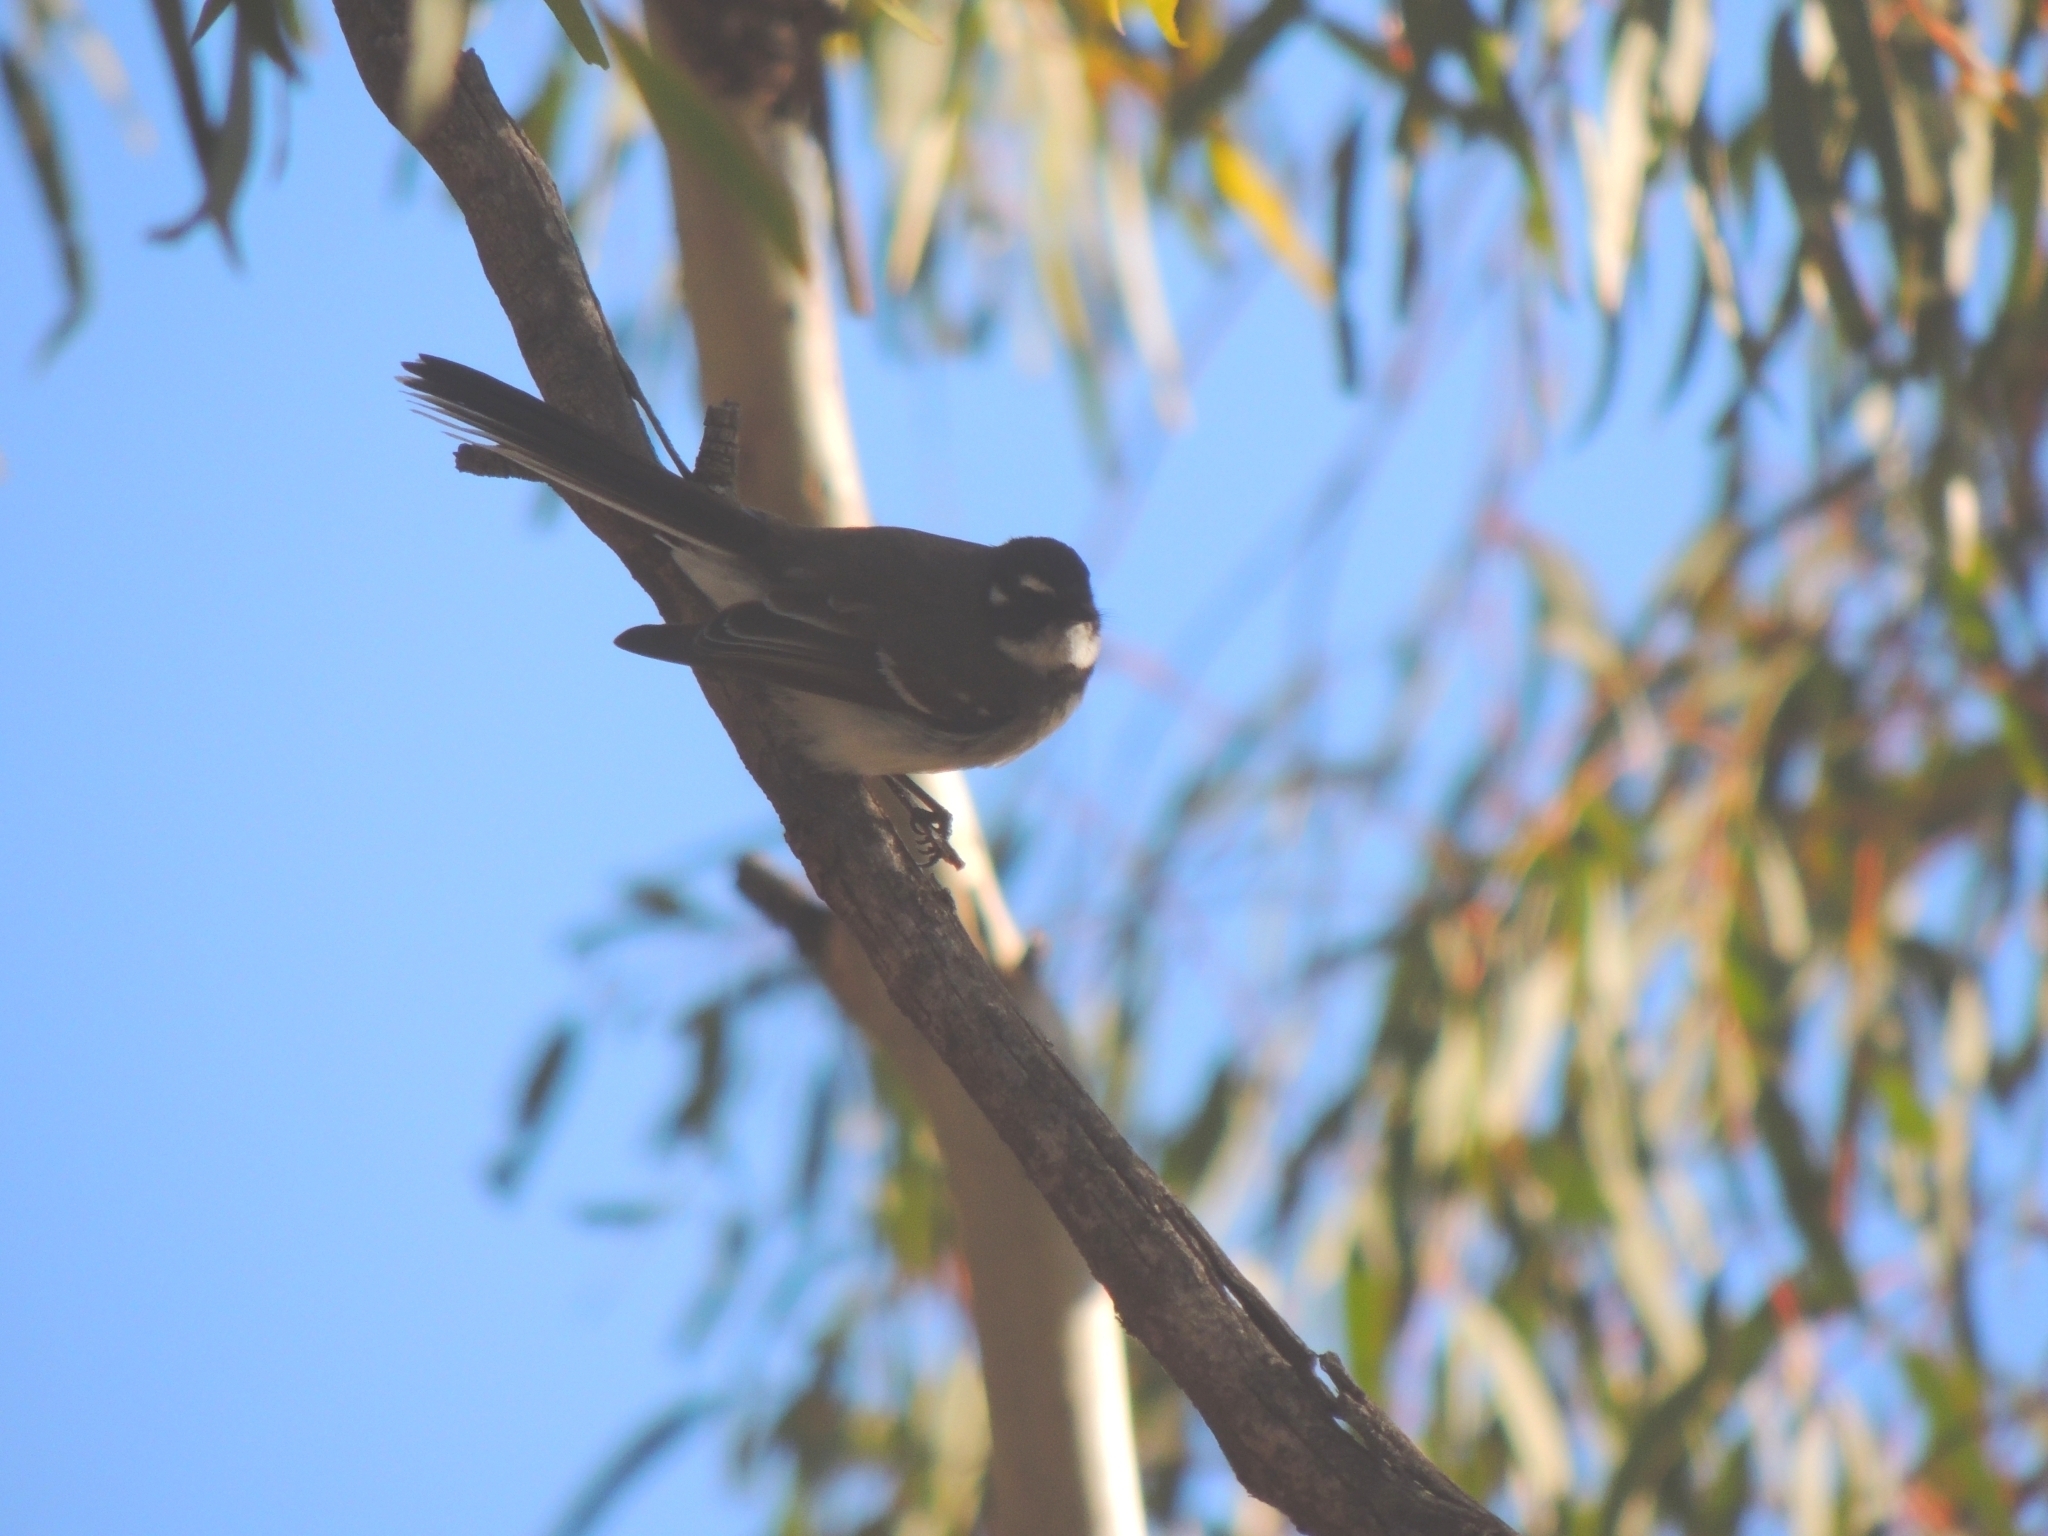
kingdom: Animalia
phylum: Chordata
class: Aves
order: Passeriformes
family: Rhipiduridae
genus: Rhipidura
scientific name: Rhipidura albiscapa
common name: Grey fantail
